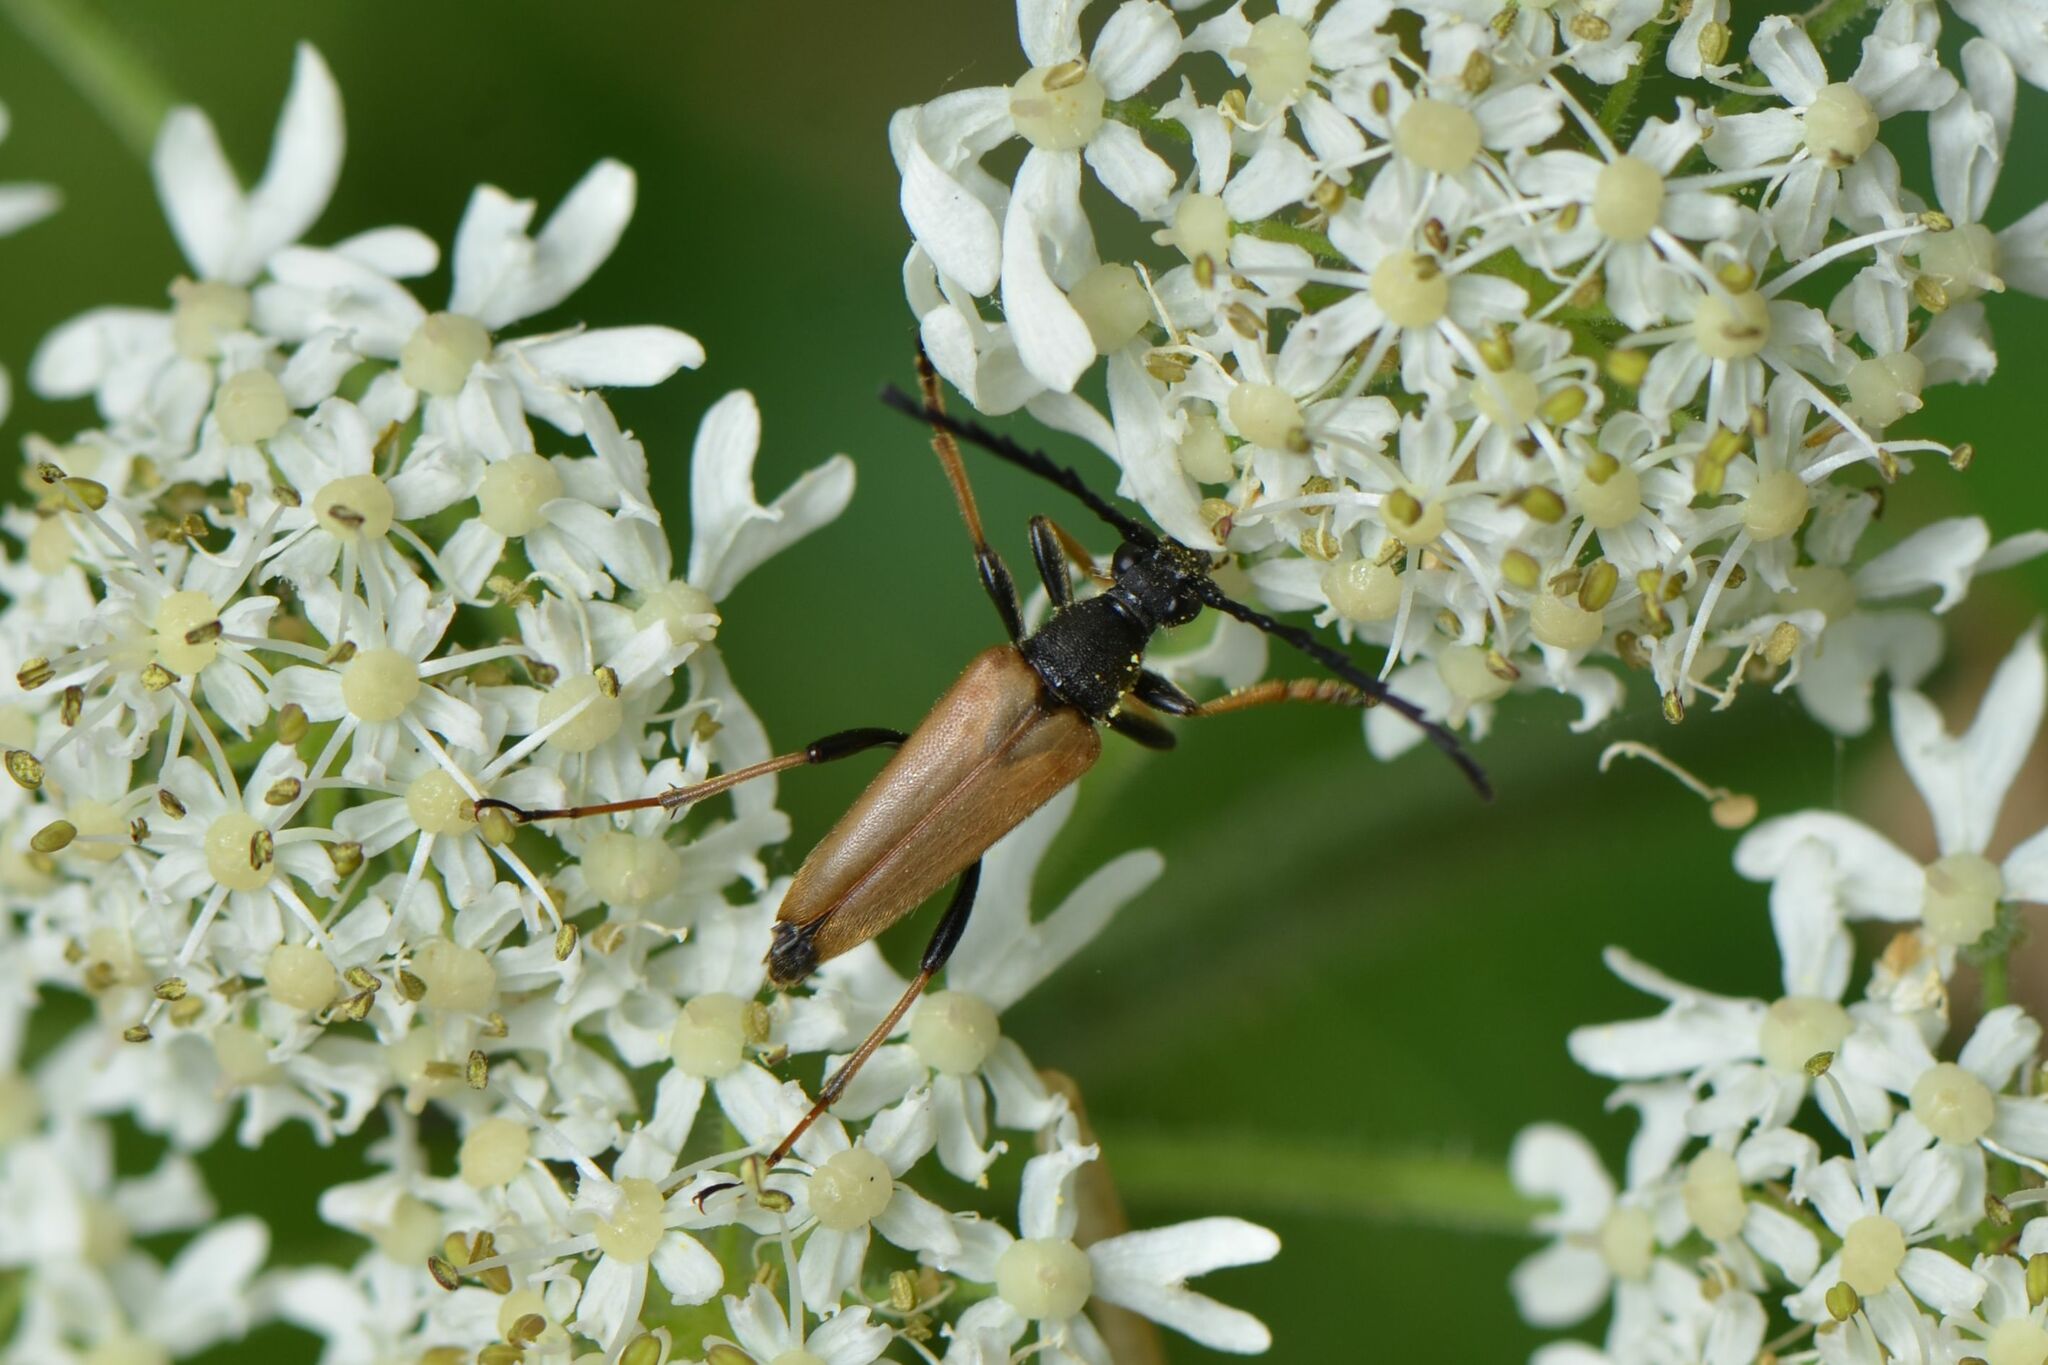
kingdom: Animalia
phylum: Arthropoda
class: Insecta
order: Coleoptera
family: Cerambycidae
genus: Stictoleptura
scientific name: Stictoleptura rubra
